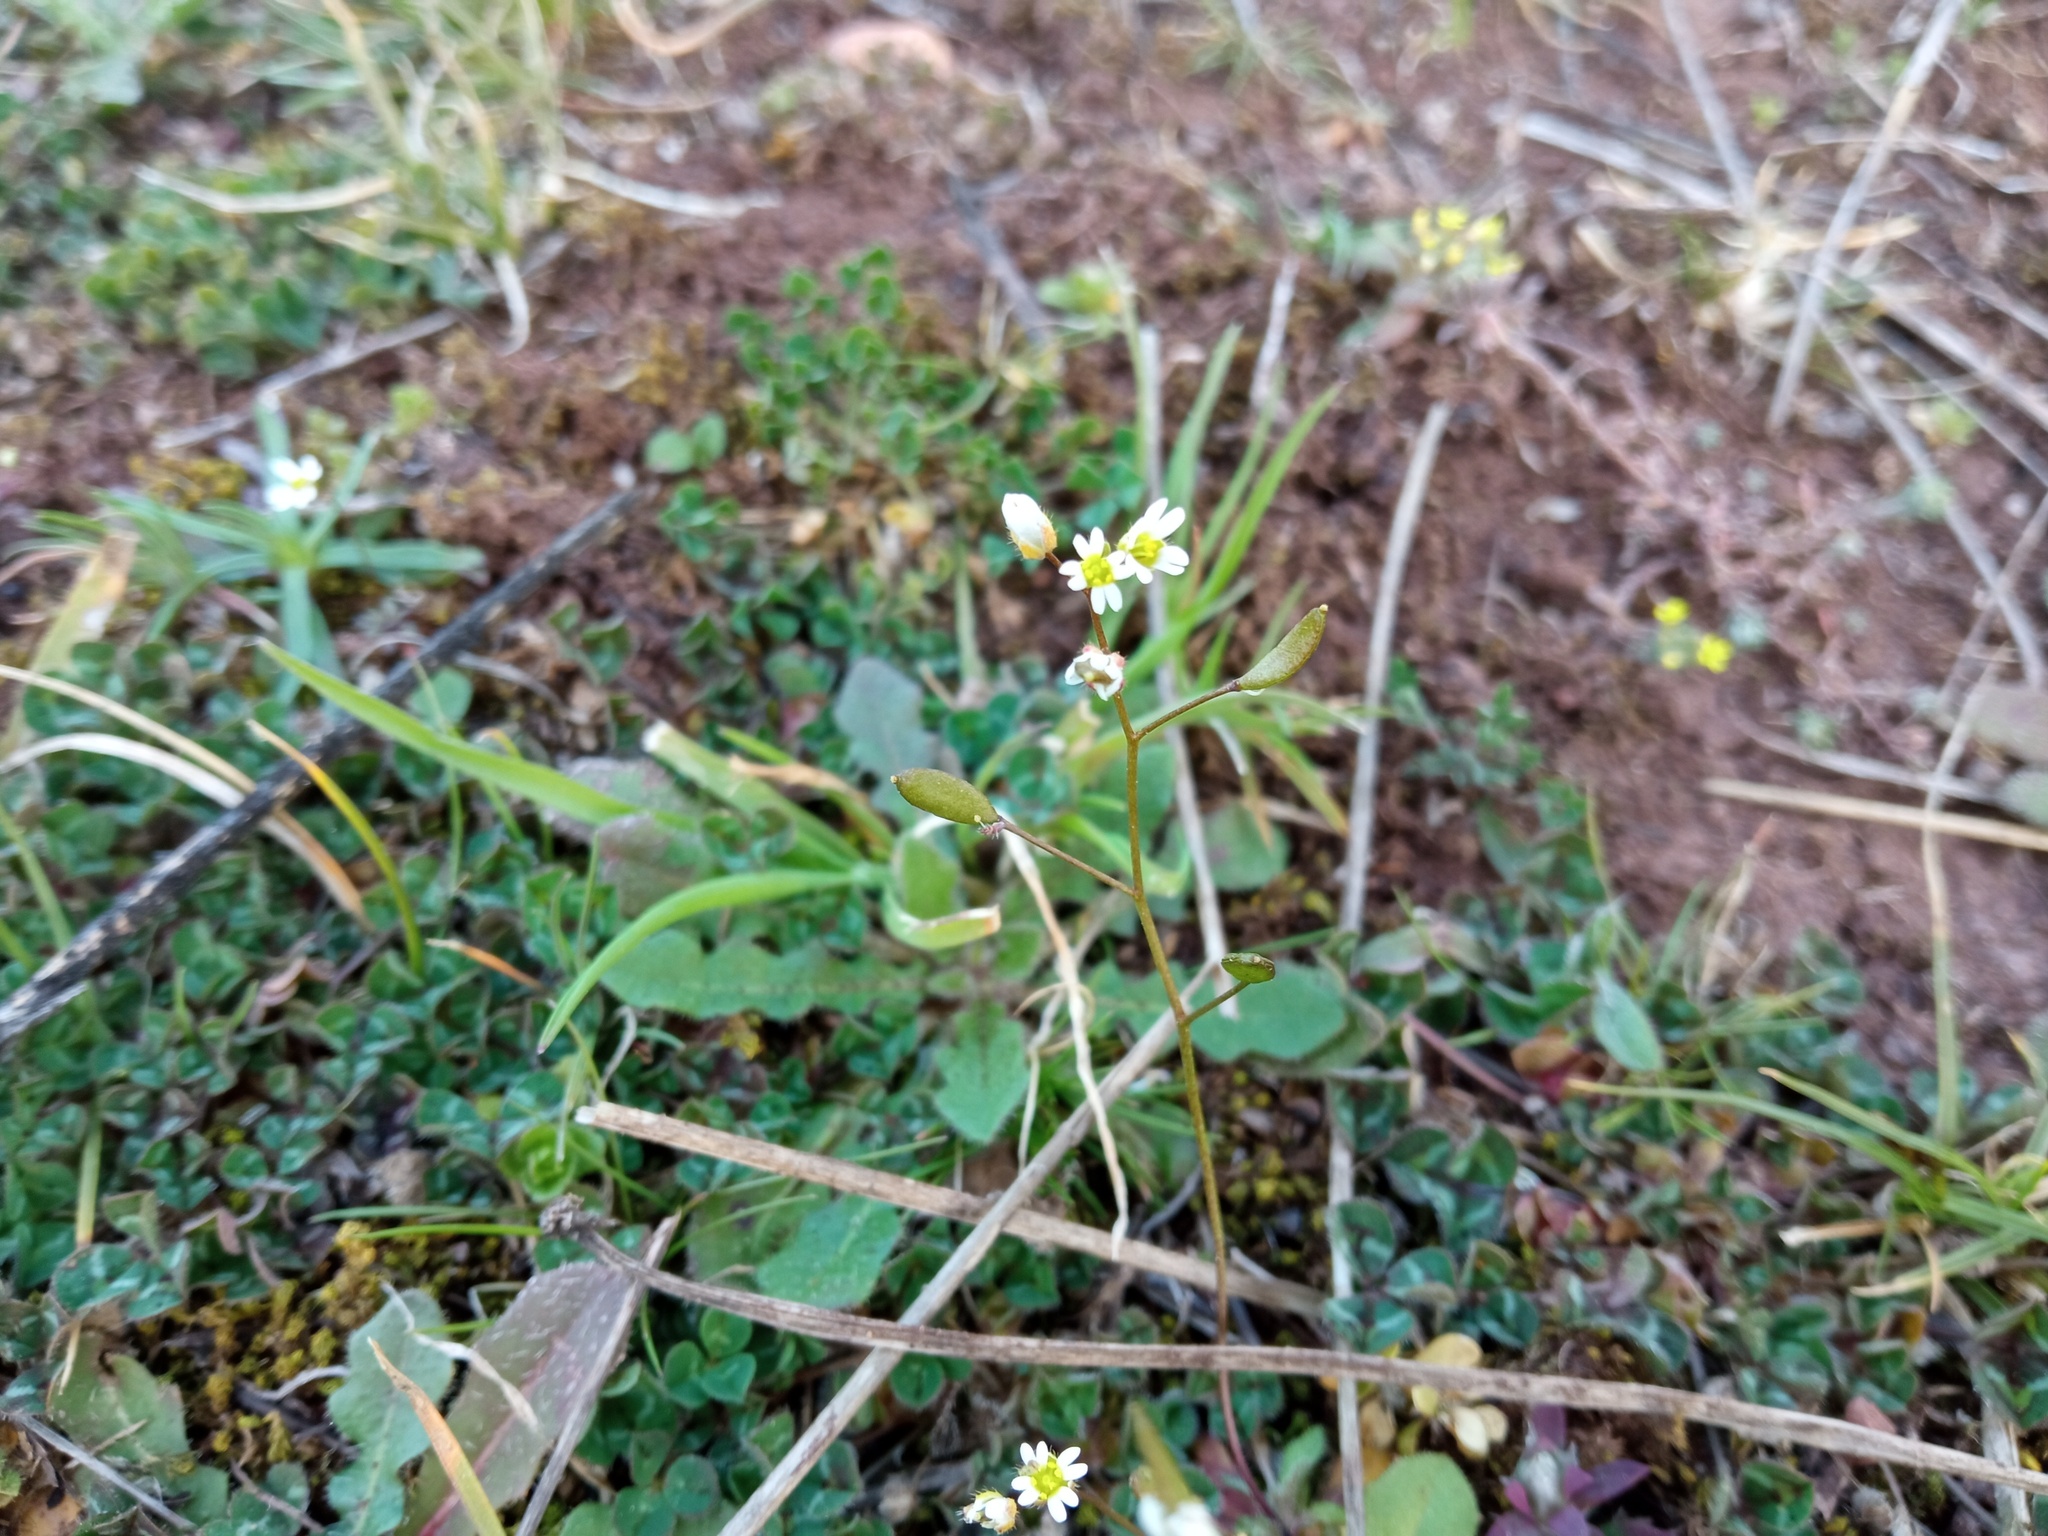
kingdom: Plantae
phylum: Tracheophyta
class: Magnoliopsida
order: Brassicales
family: Brassicaceae
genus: Draba
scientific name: Draba verna
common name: Spring draba
